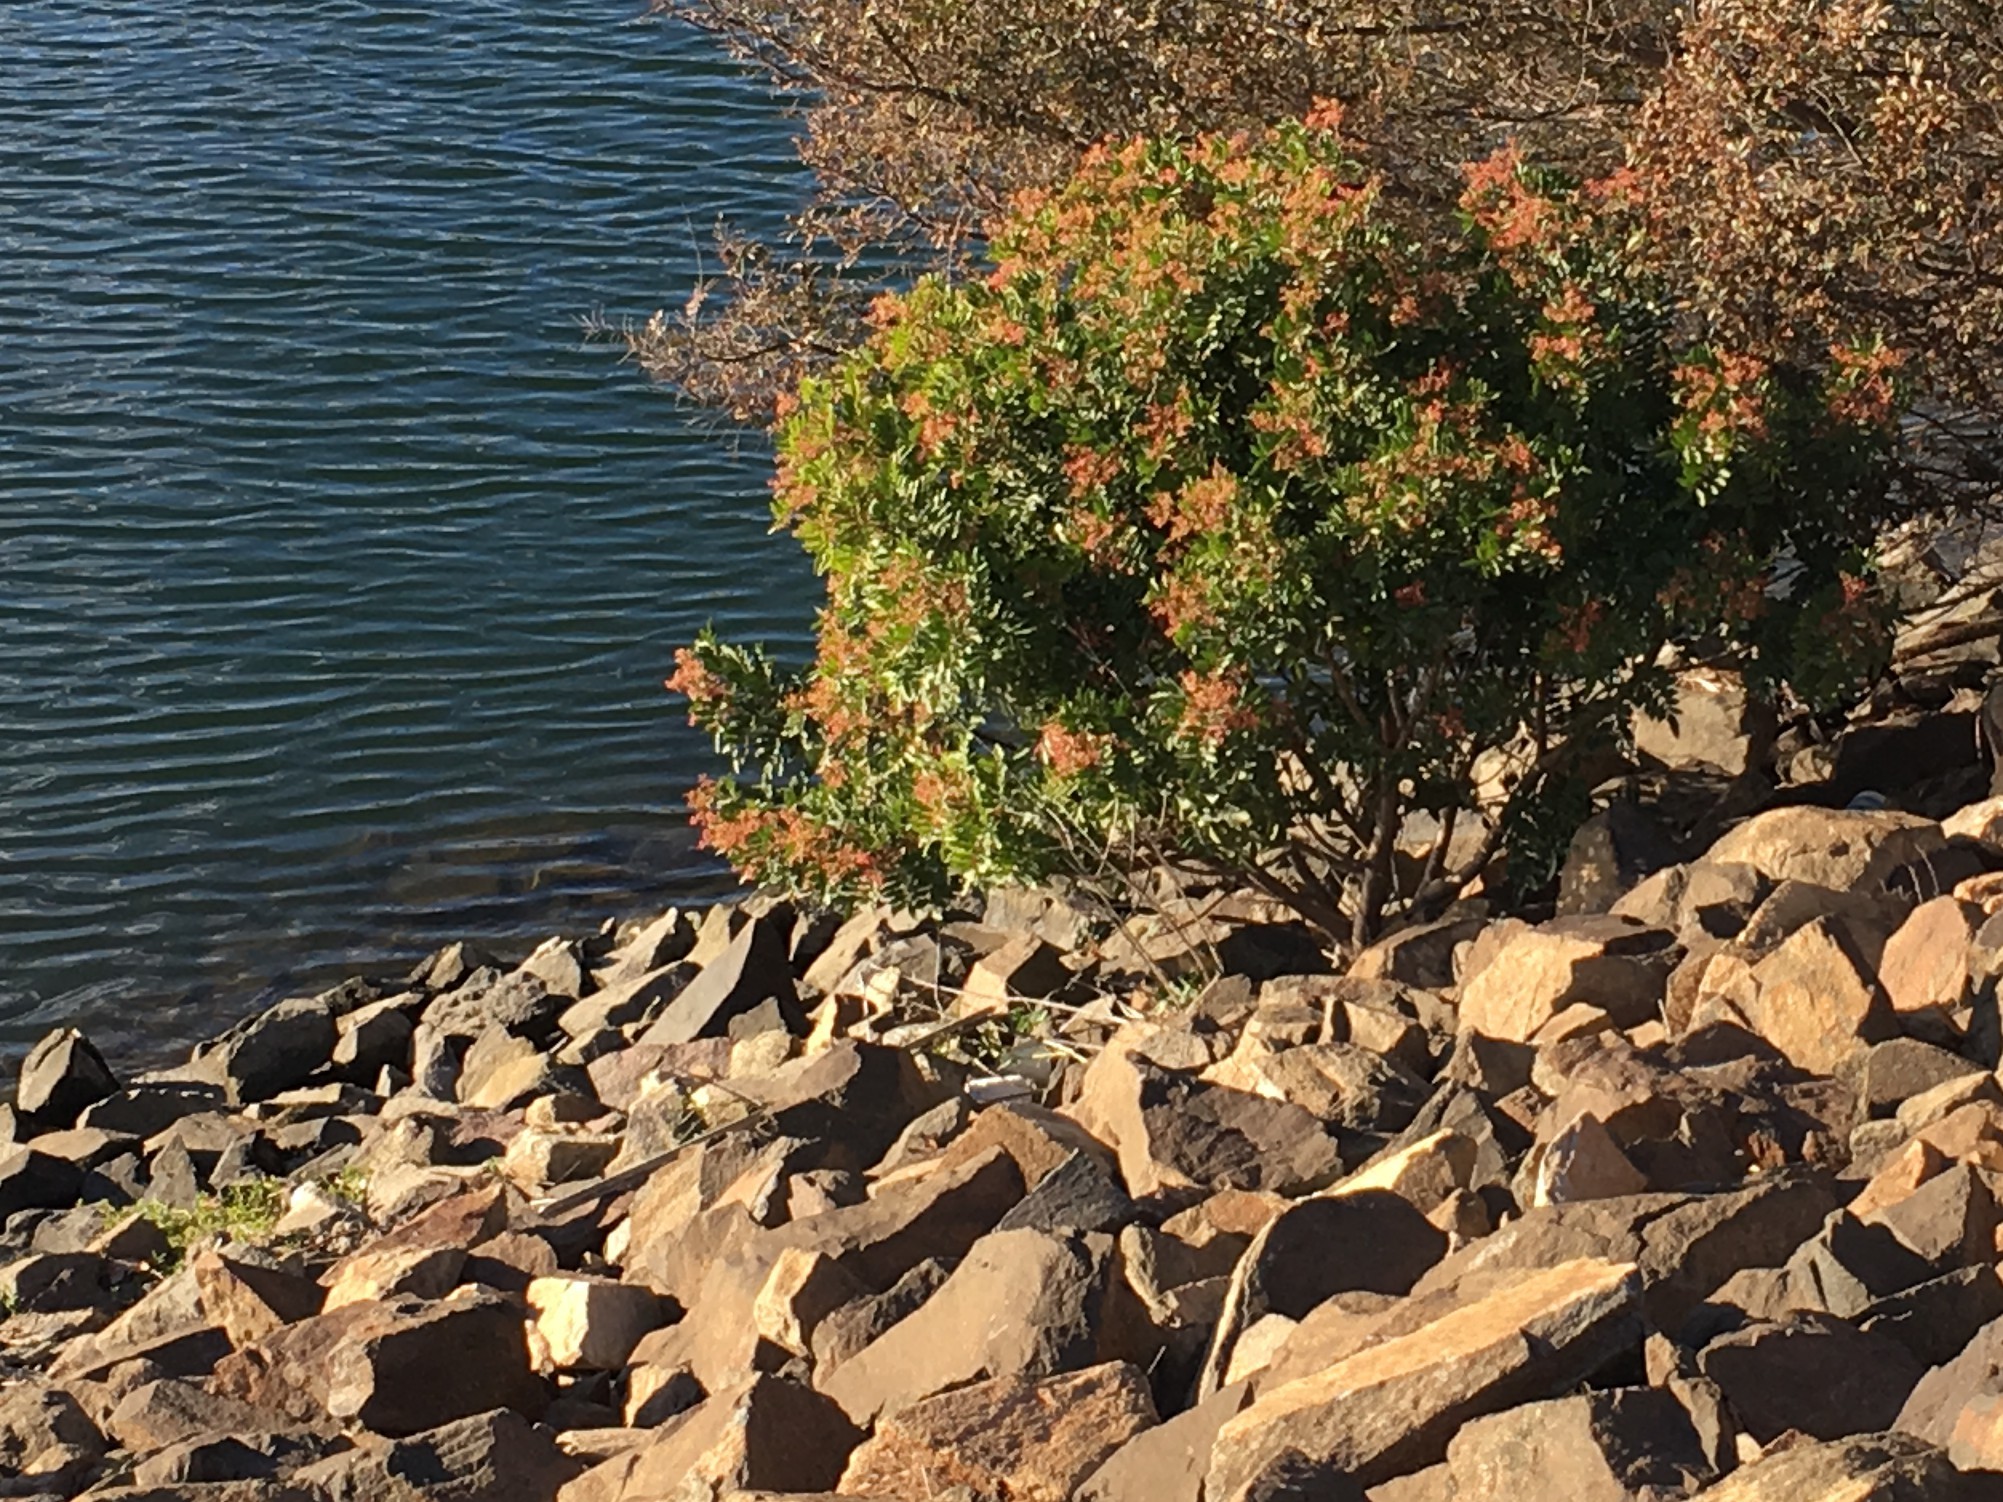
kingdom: Plantae
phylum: Tracheophyta
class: Magnoliopsida
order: Sapindales
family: Anacardiaceae
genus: Schinus
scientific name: Schinus terebinthifolia
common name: Brazilian peppertree
